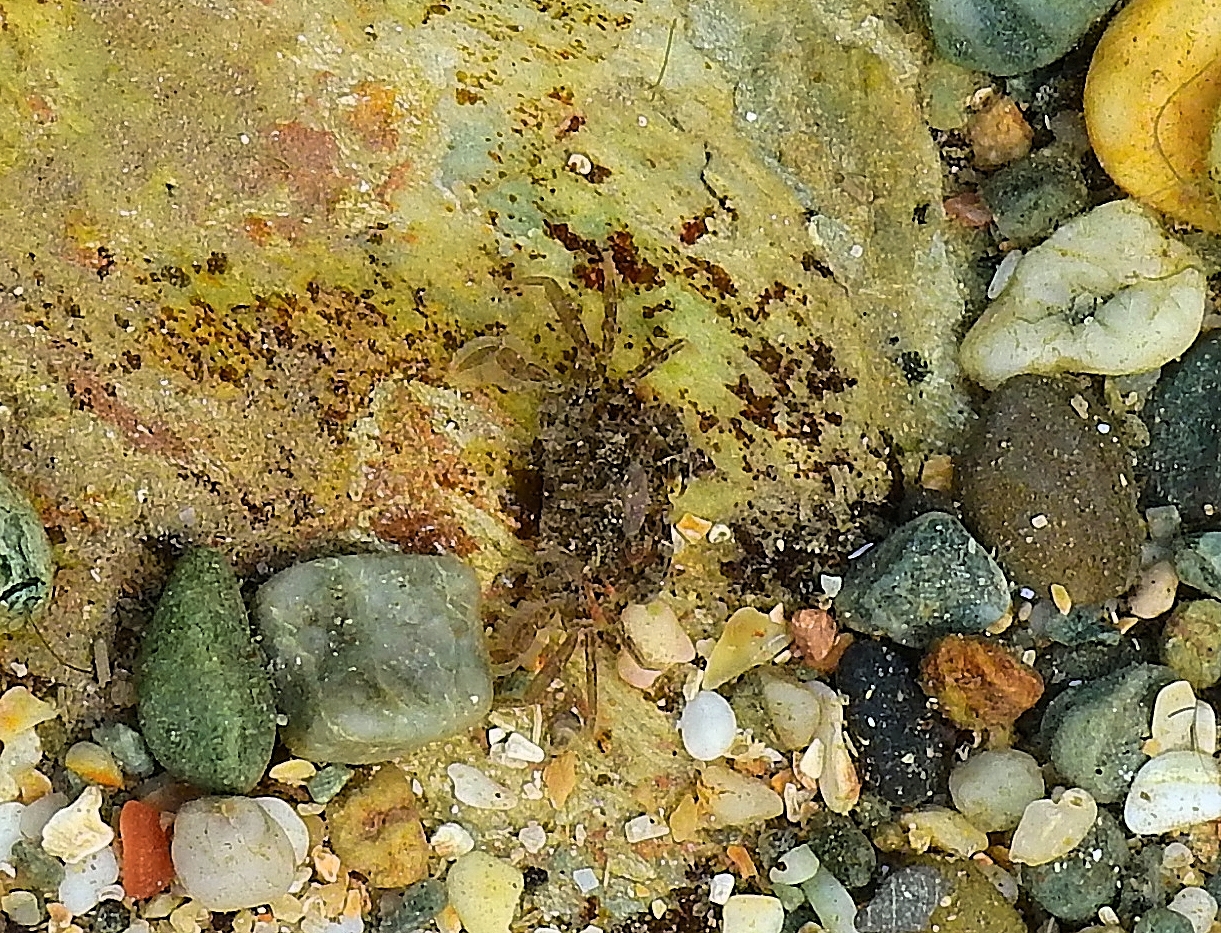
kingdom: Animalia
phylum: Arthropoda
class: Malacostraca
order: Decapoda
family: Polybiidae
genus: Necora
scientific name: Necora puber
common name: Velvet swimming crab
